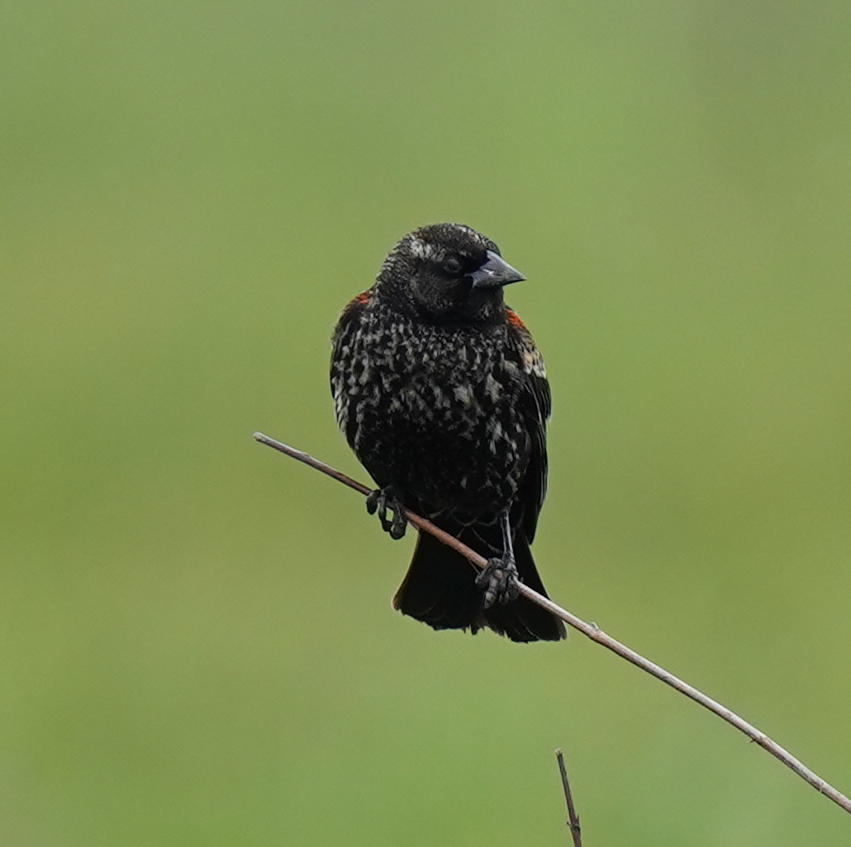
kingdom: Animalia
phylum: Chordata
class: Aves
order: Passeriformes
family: Icteridae
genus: Agelaius
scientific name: Agelaius phoeniceus
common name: Red-winged blackbird
